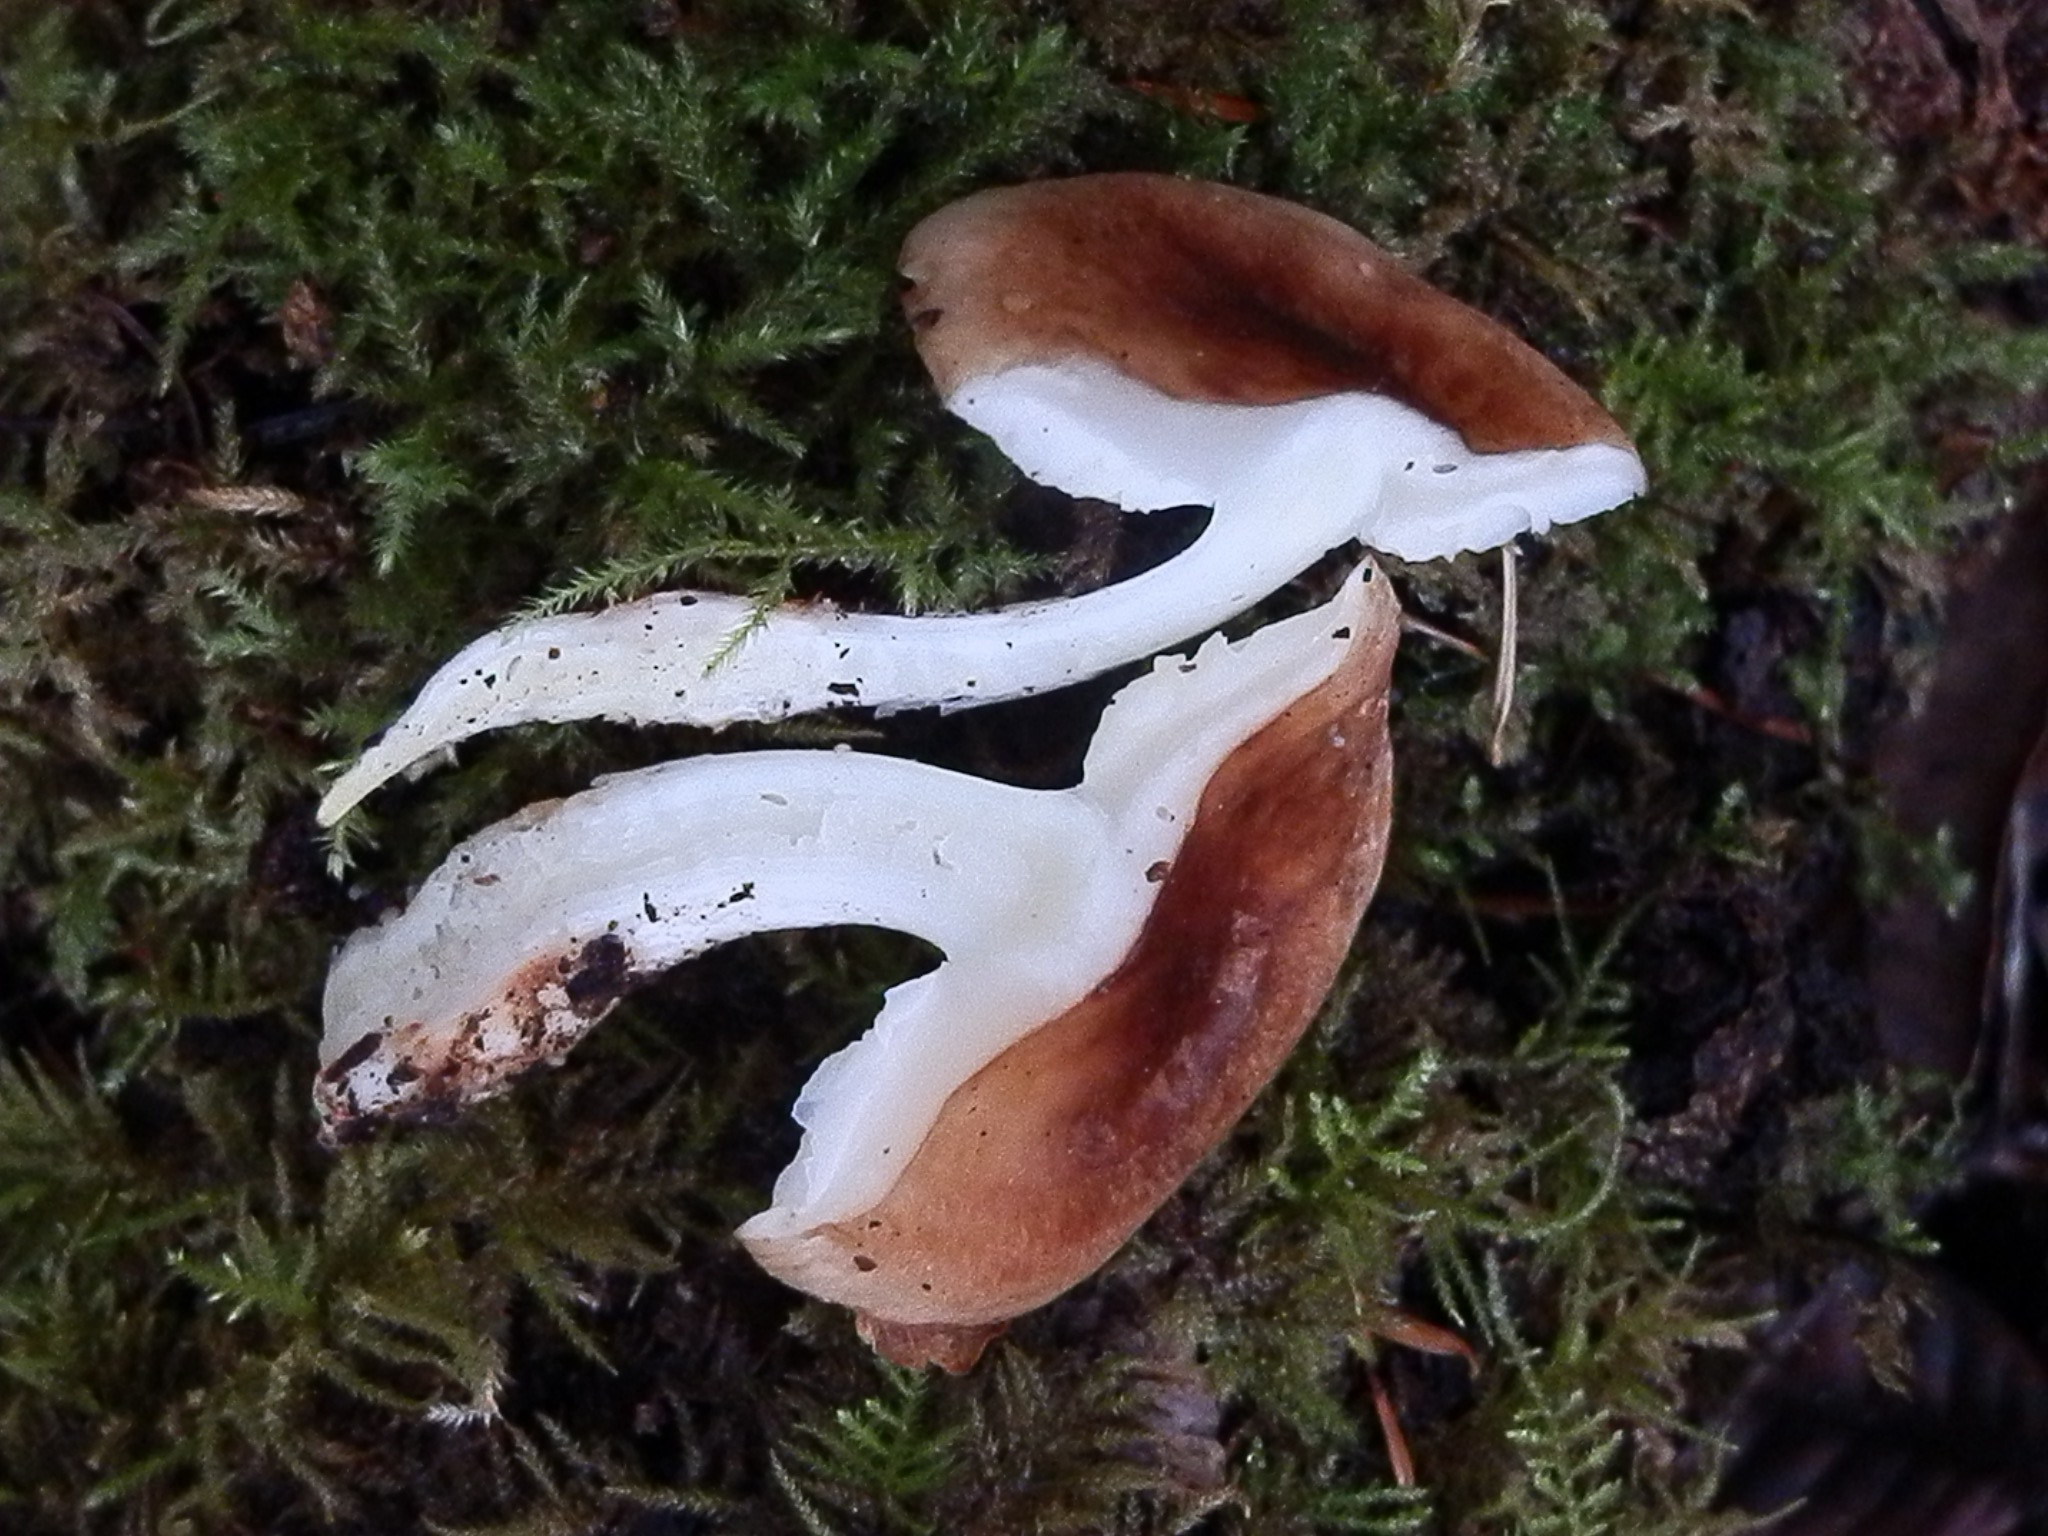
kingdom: Fungi
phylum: Basidiomycota
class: Agaricomycetes
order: Agaricales
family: Omphalotaceae
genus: Rhodocollybia
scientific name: Rhodocollybia oregonensis
